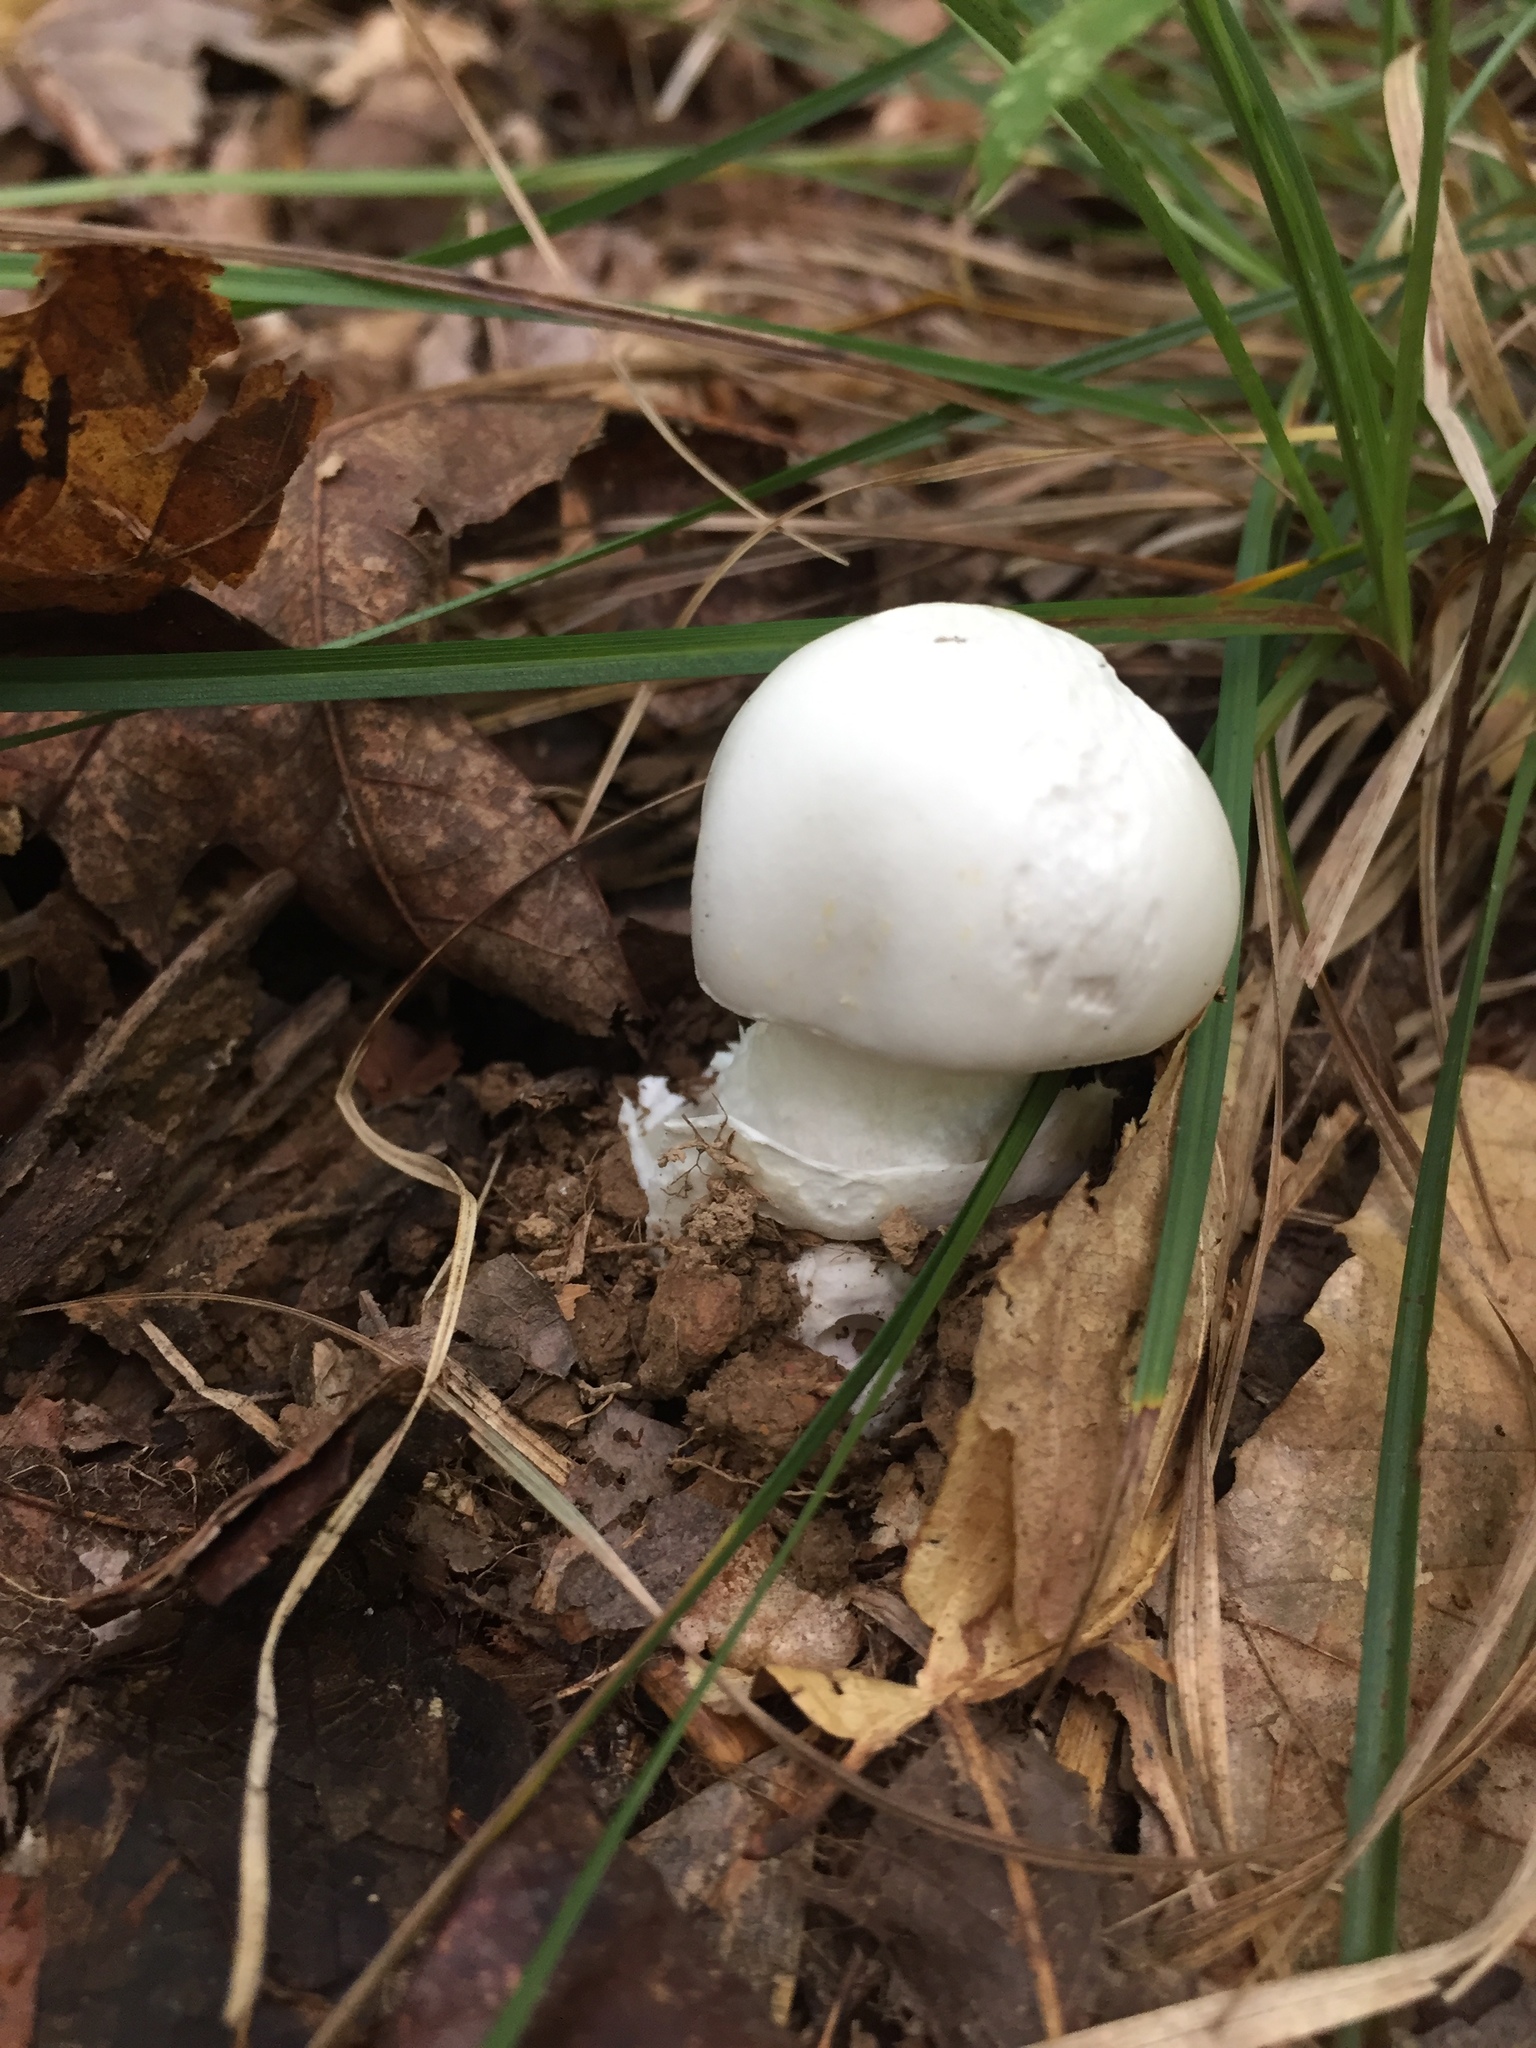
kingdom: Fungi
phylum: Basidiomycota
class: Agaricomycetes
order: Agaricales
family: Amanitaceae
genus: Amanita
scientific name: Amanita bisporigera
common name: Eastern north american destroying angel
